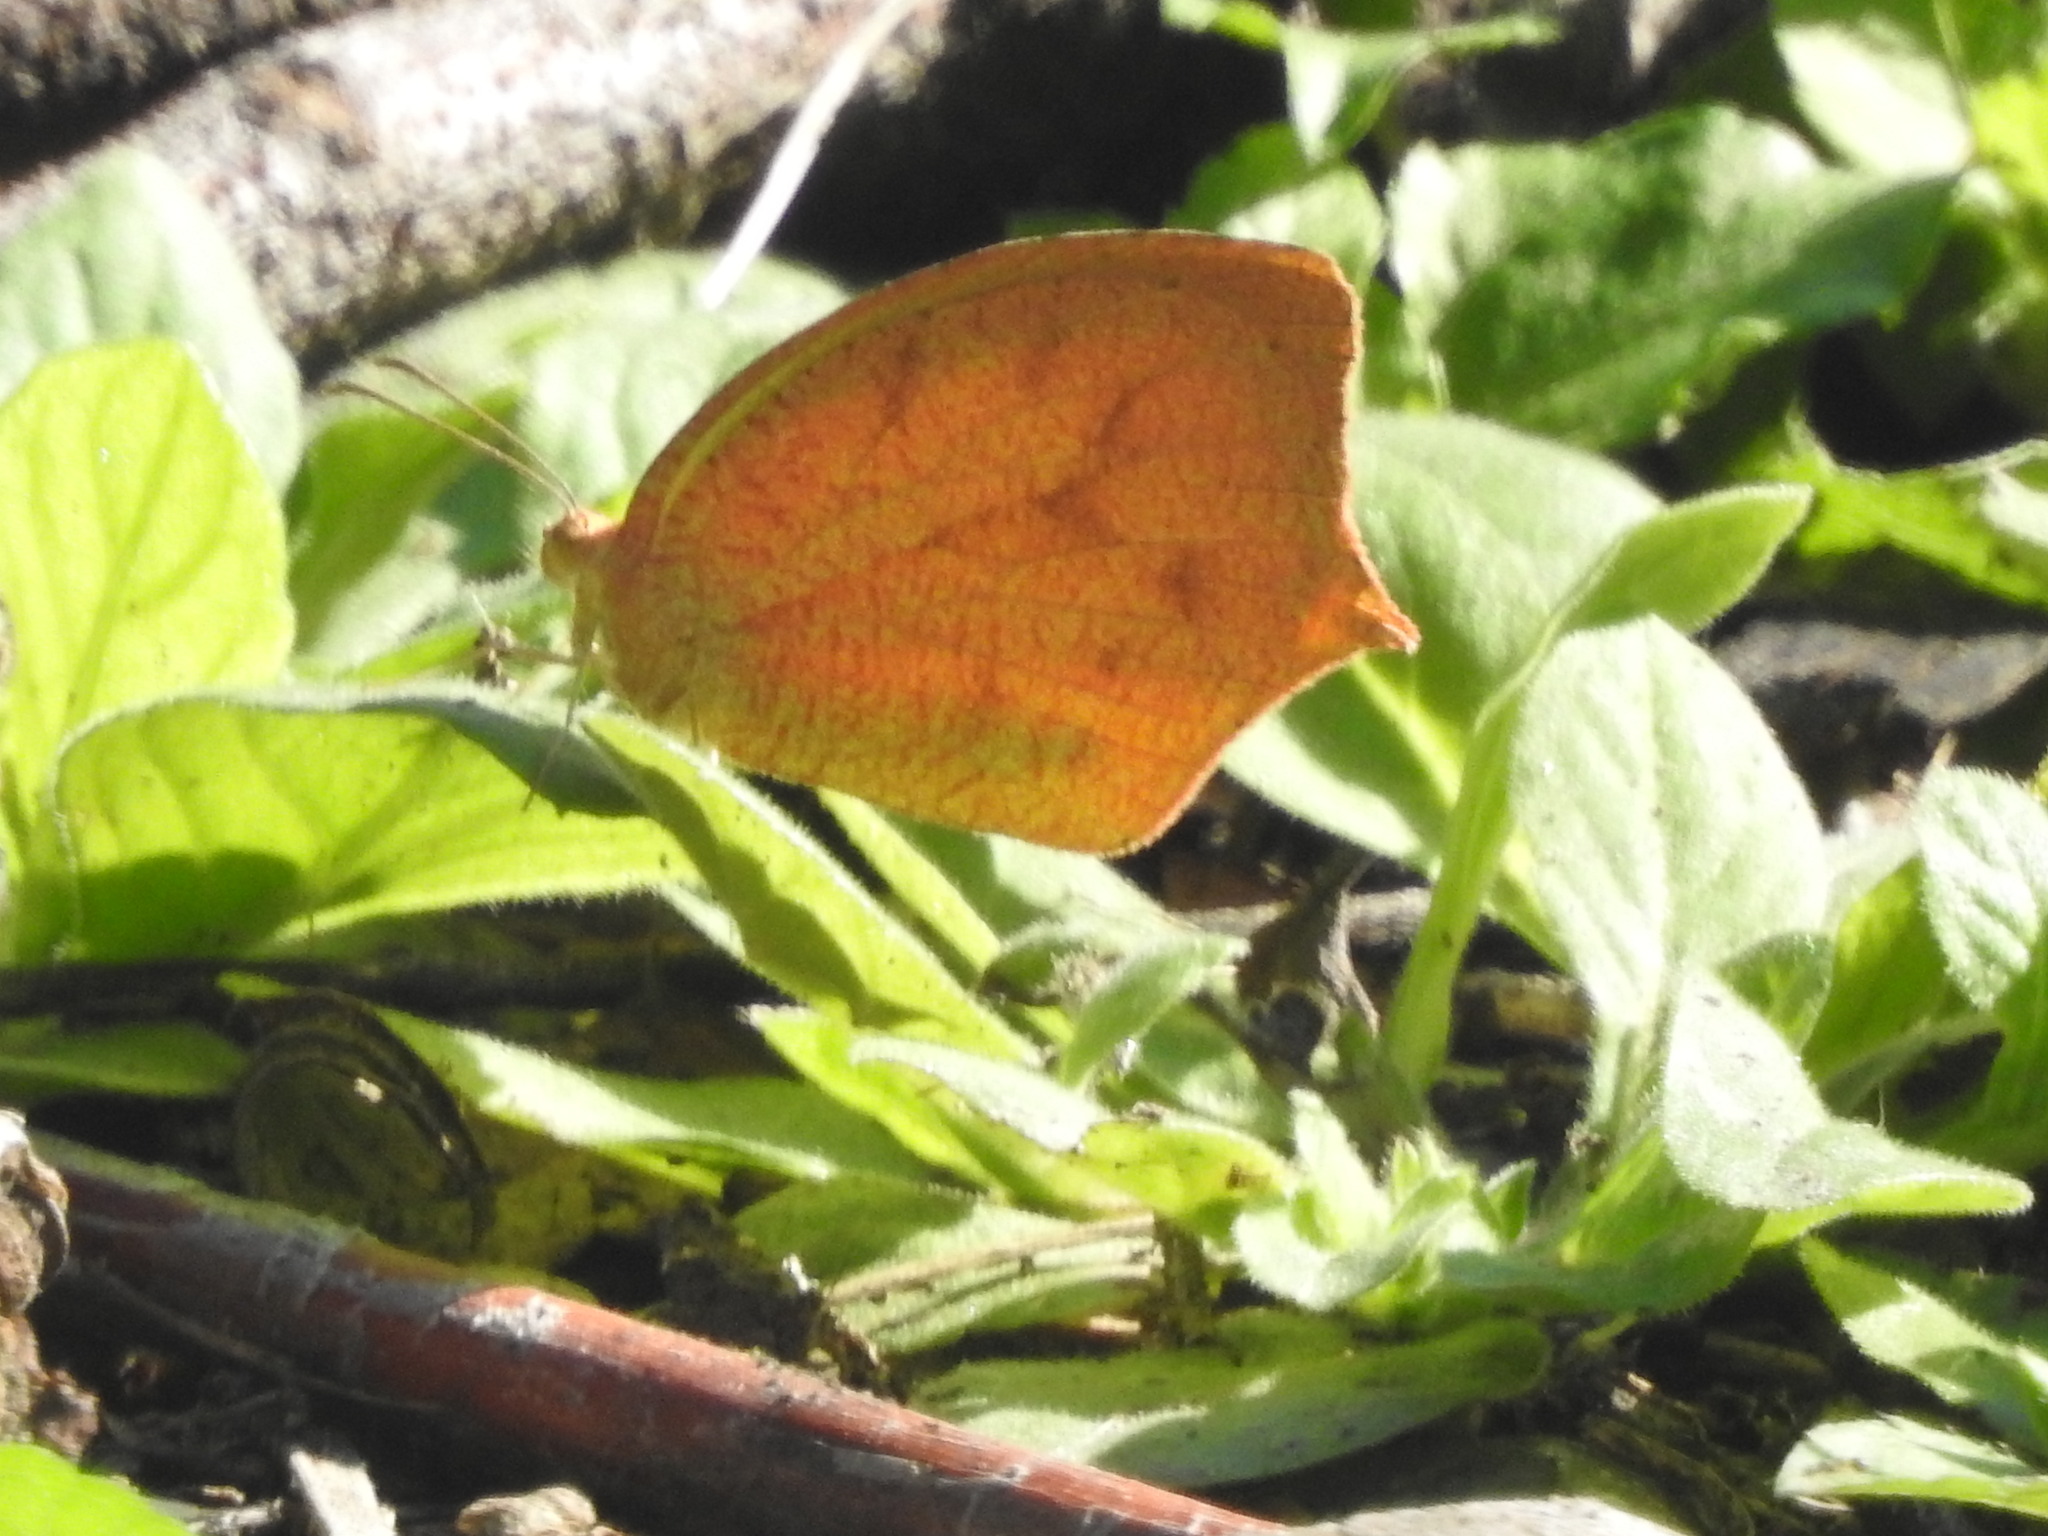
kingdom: Animalia
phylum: Arthropoda
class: Insecta
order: Lepidoptera
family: Pieridae
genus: Pyrisitia
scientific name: Pyrisitia proterpia
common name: Tailed orange
